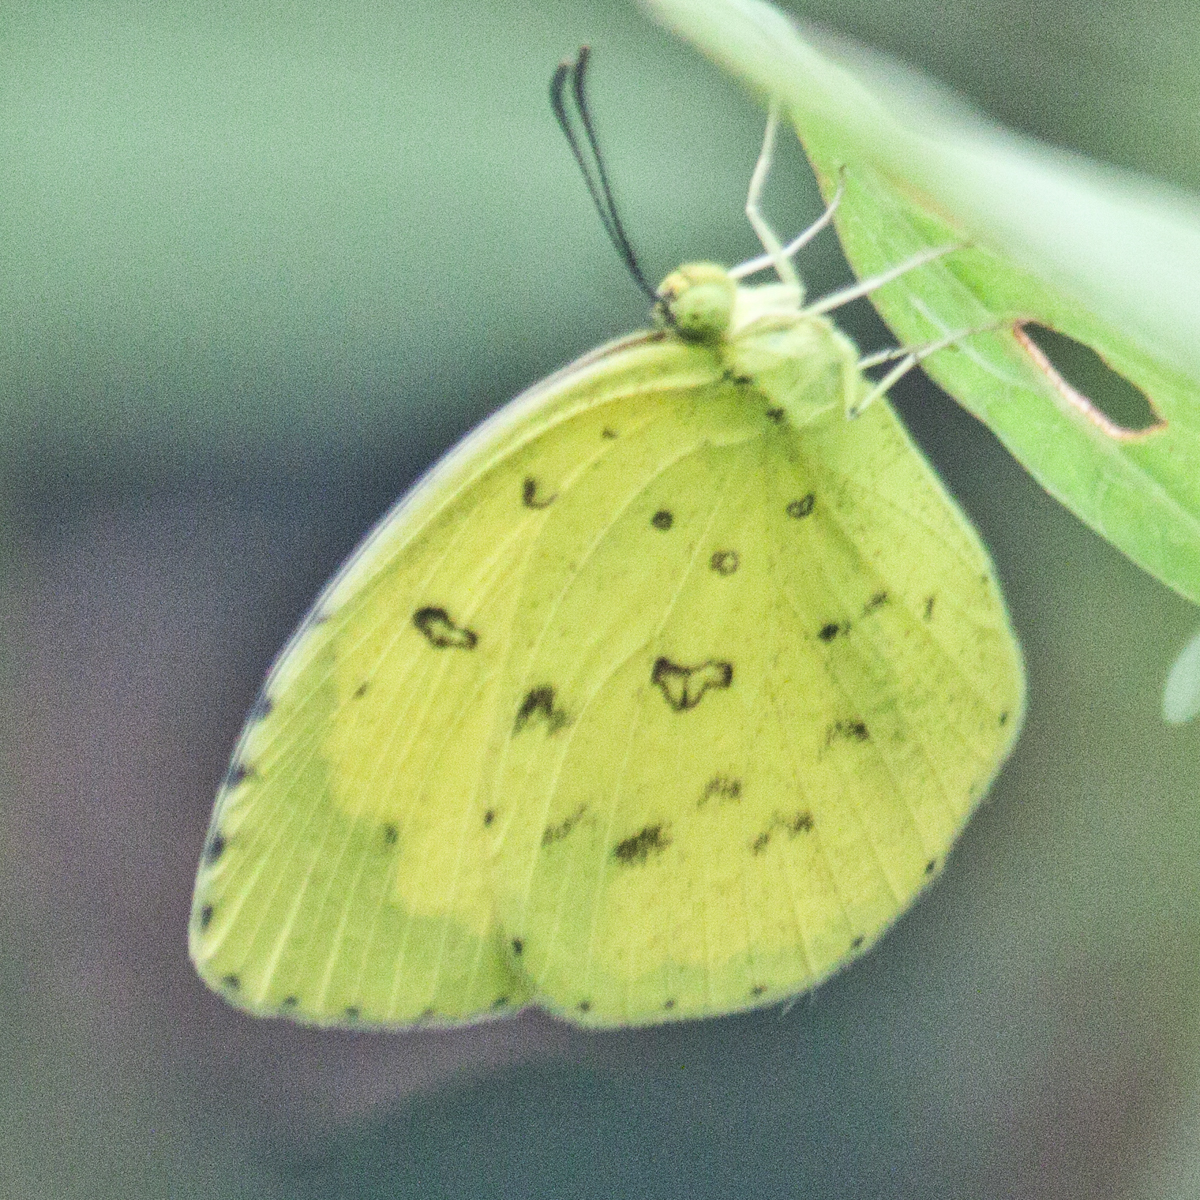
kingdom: Animalia
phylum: Arthropoda
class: Insecta
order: Lepidoptera
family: Pieridae
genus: Eurema
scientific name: Eurema hecabe
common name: Pale grass yellow
